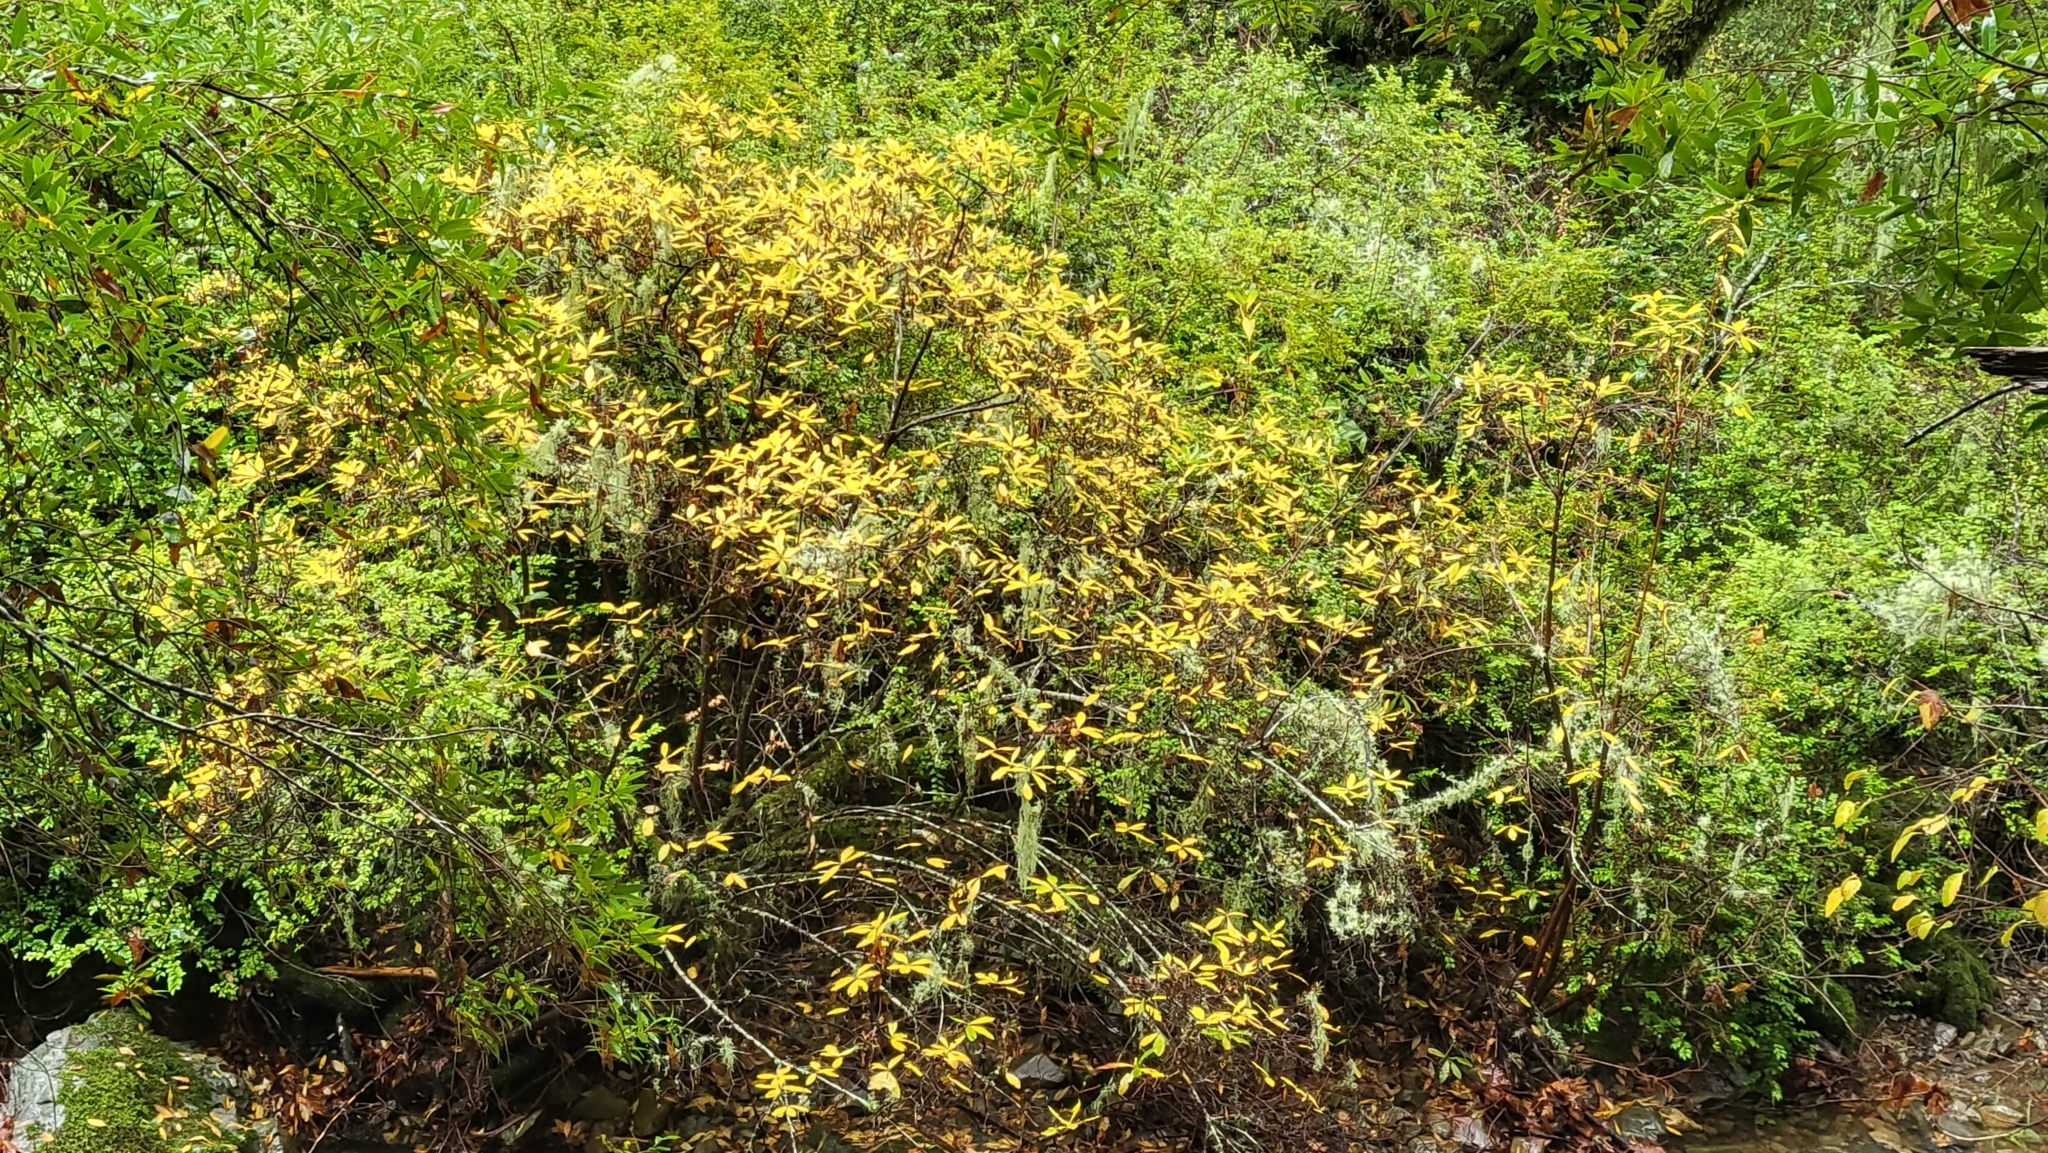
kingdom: Plantae
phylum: Tracheophyta
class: Magnoliopsida
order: Ericales
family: Ericaceae
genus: Rhododendron
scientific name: Rhododendron occidentale
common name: Western azalea
